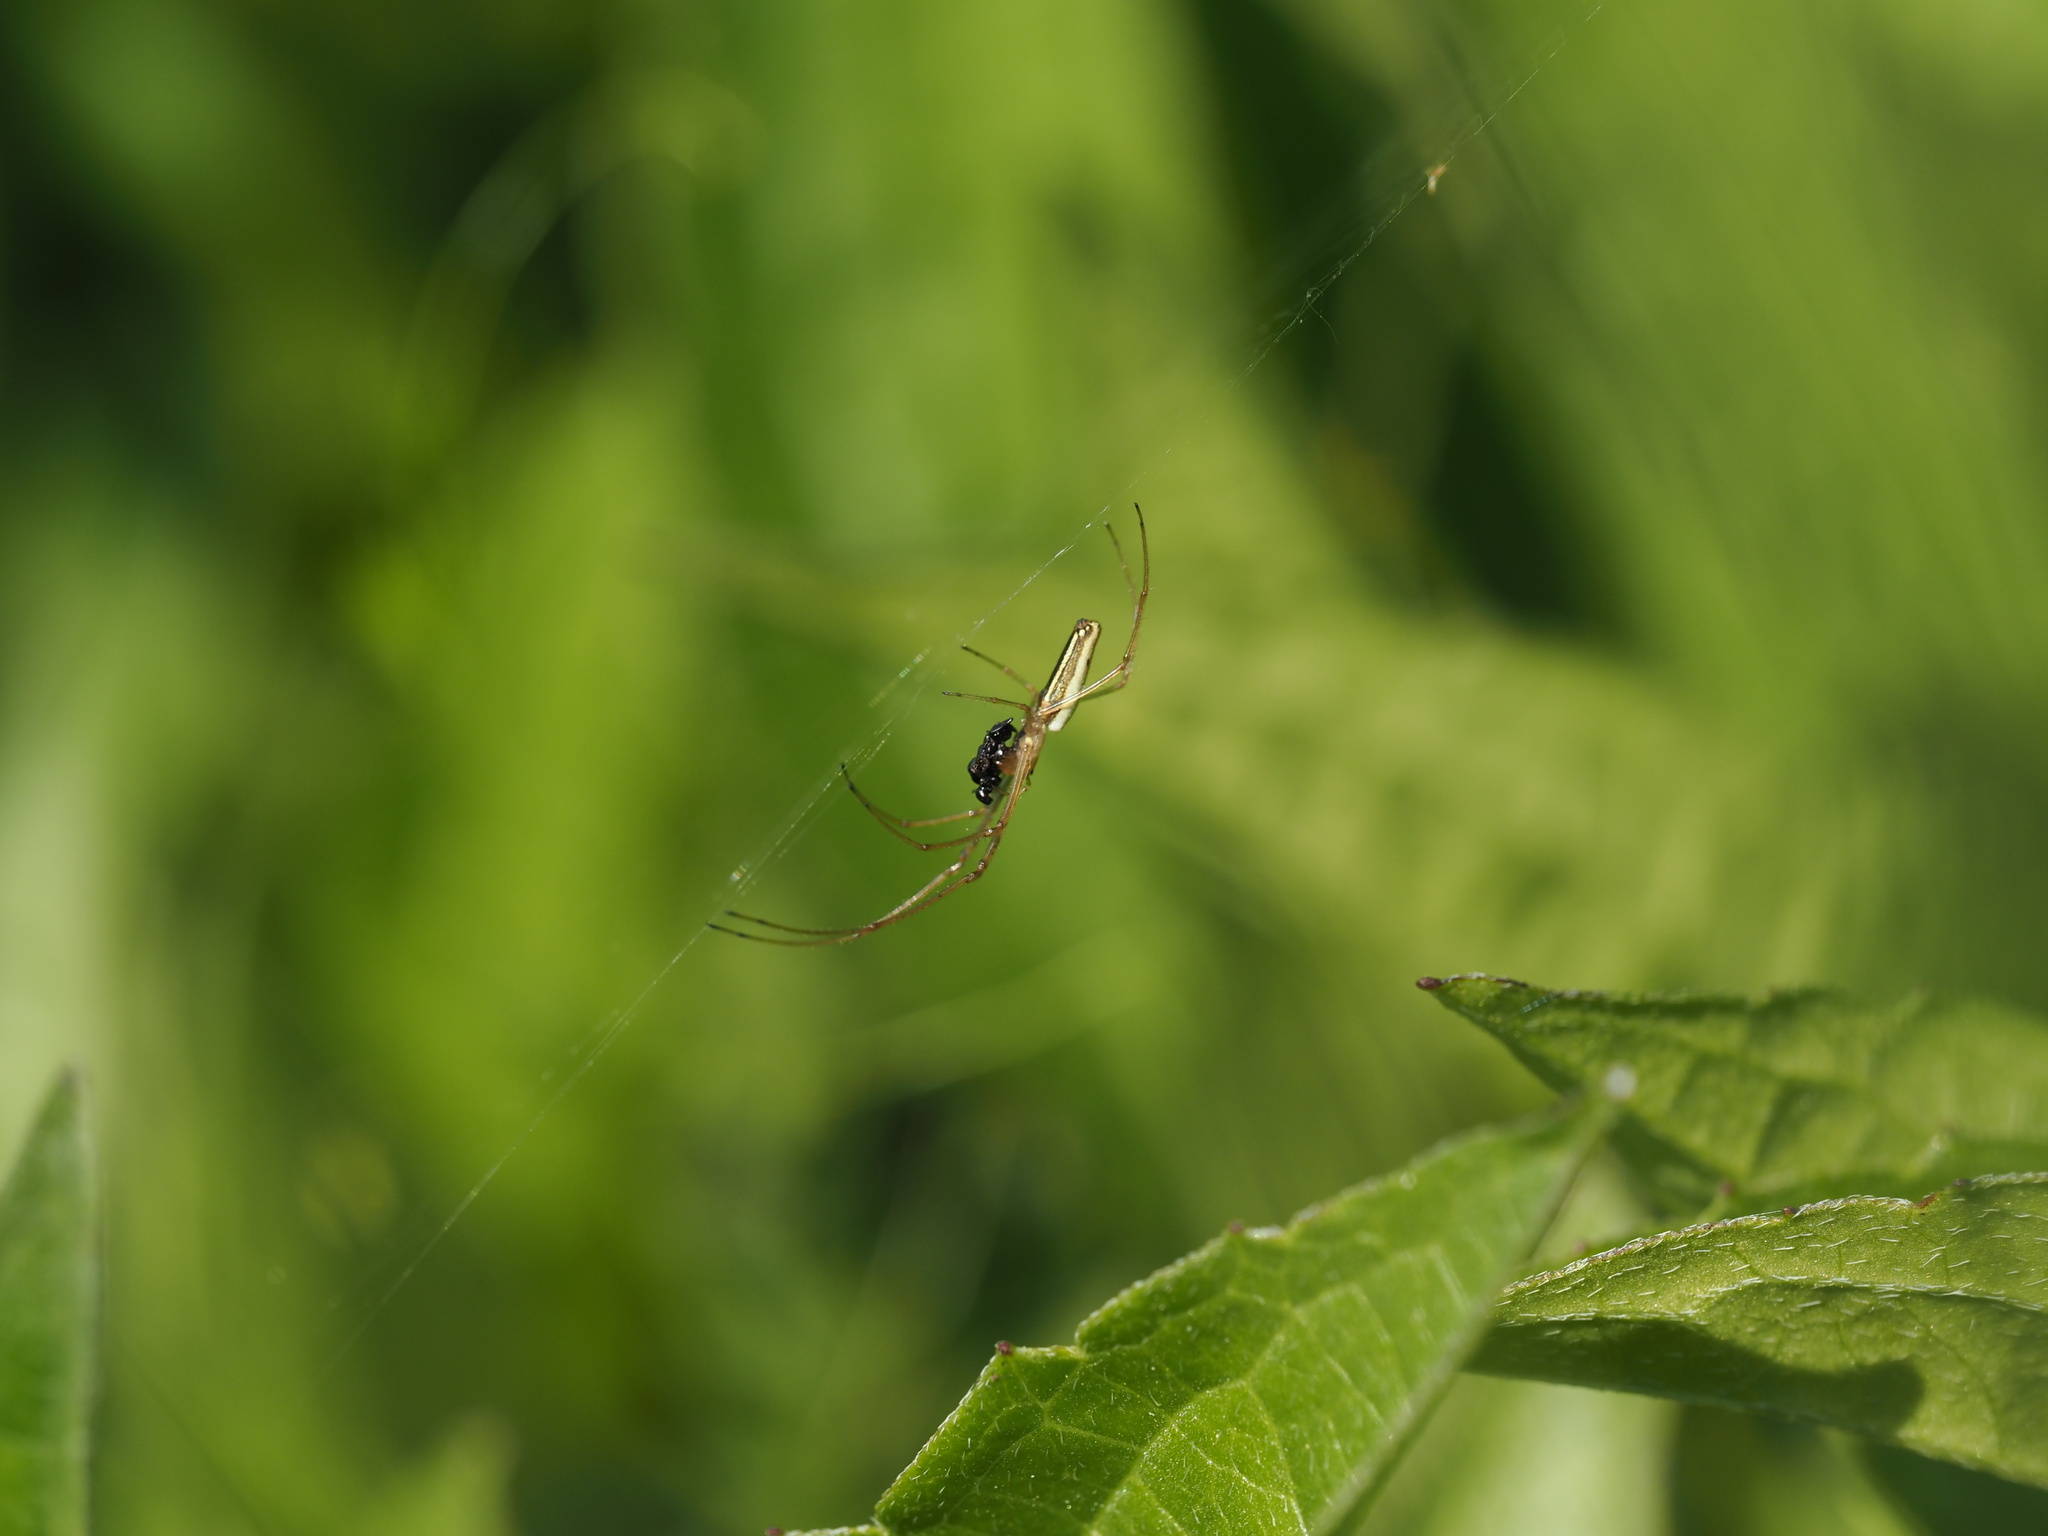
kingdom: Animalia
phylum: Arthropoda
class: Arachnida
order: Araneae
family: Tetragnathidae
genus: Tetragnatha
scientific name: Tetragnatha laboriosa
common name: Longjawed orb weavers
